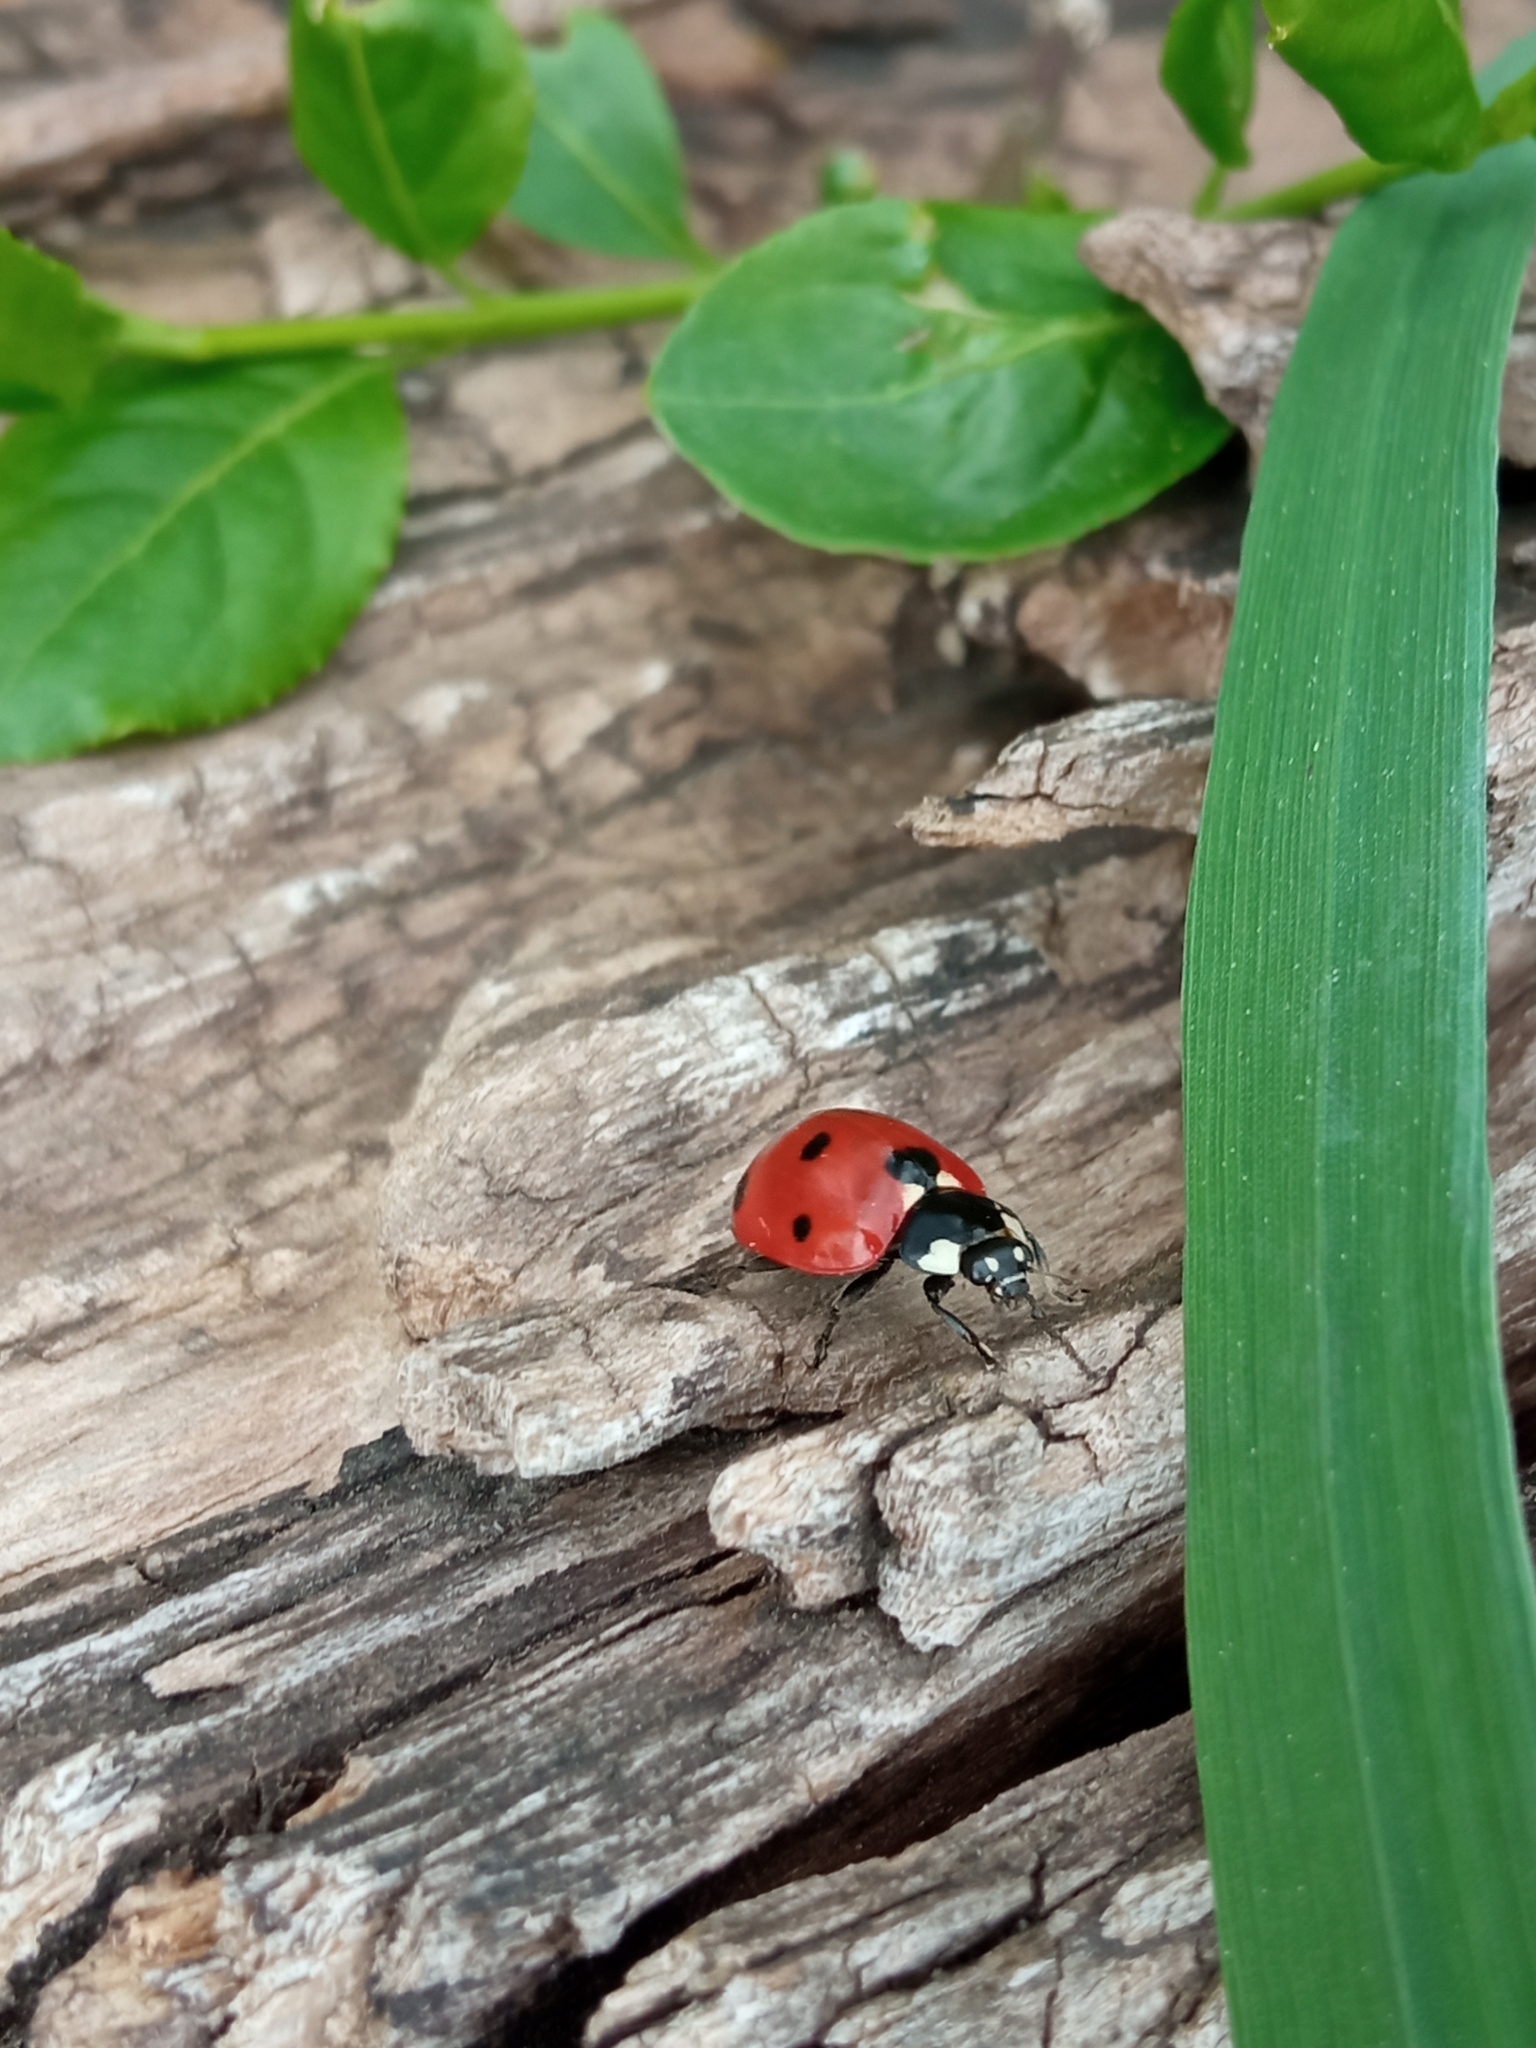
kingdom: Animalia
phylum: Arthropoda
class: Insecta
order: Coleoptera
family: Coccinellidae
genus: Coccinella
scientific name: Coccinella septempunctata
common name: Sevenspotted lady beetle
